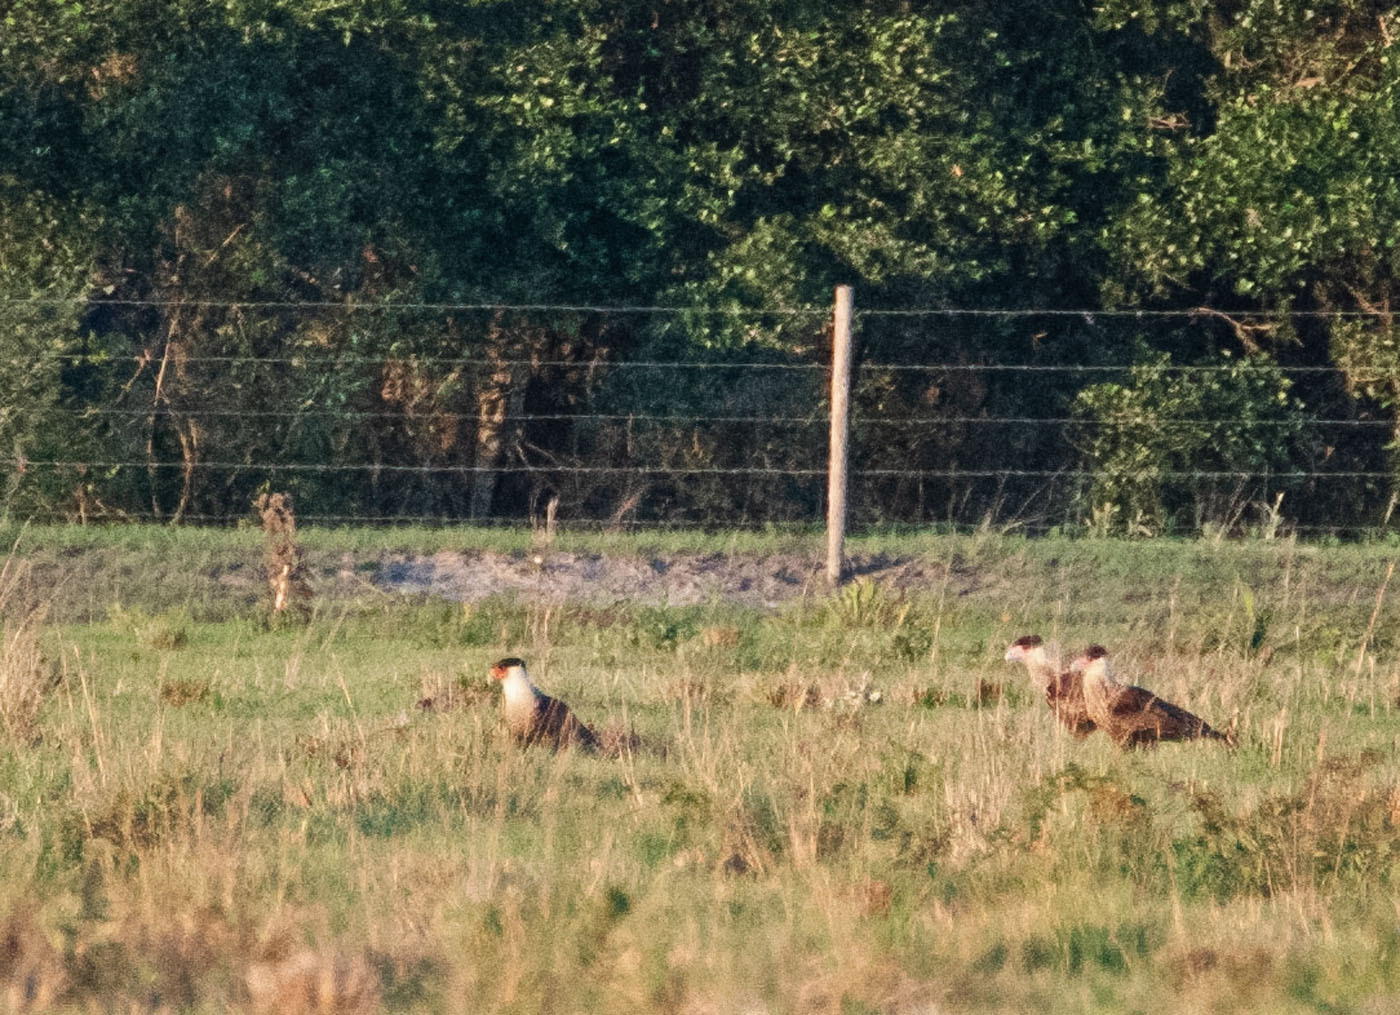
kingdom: Animalia
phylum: Chordata
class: Aves
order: Falconiformes
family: Falconidae
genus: Caracara
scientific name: Caracara plancus
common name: Southern caracara
